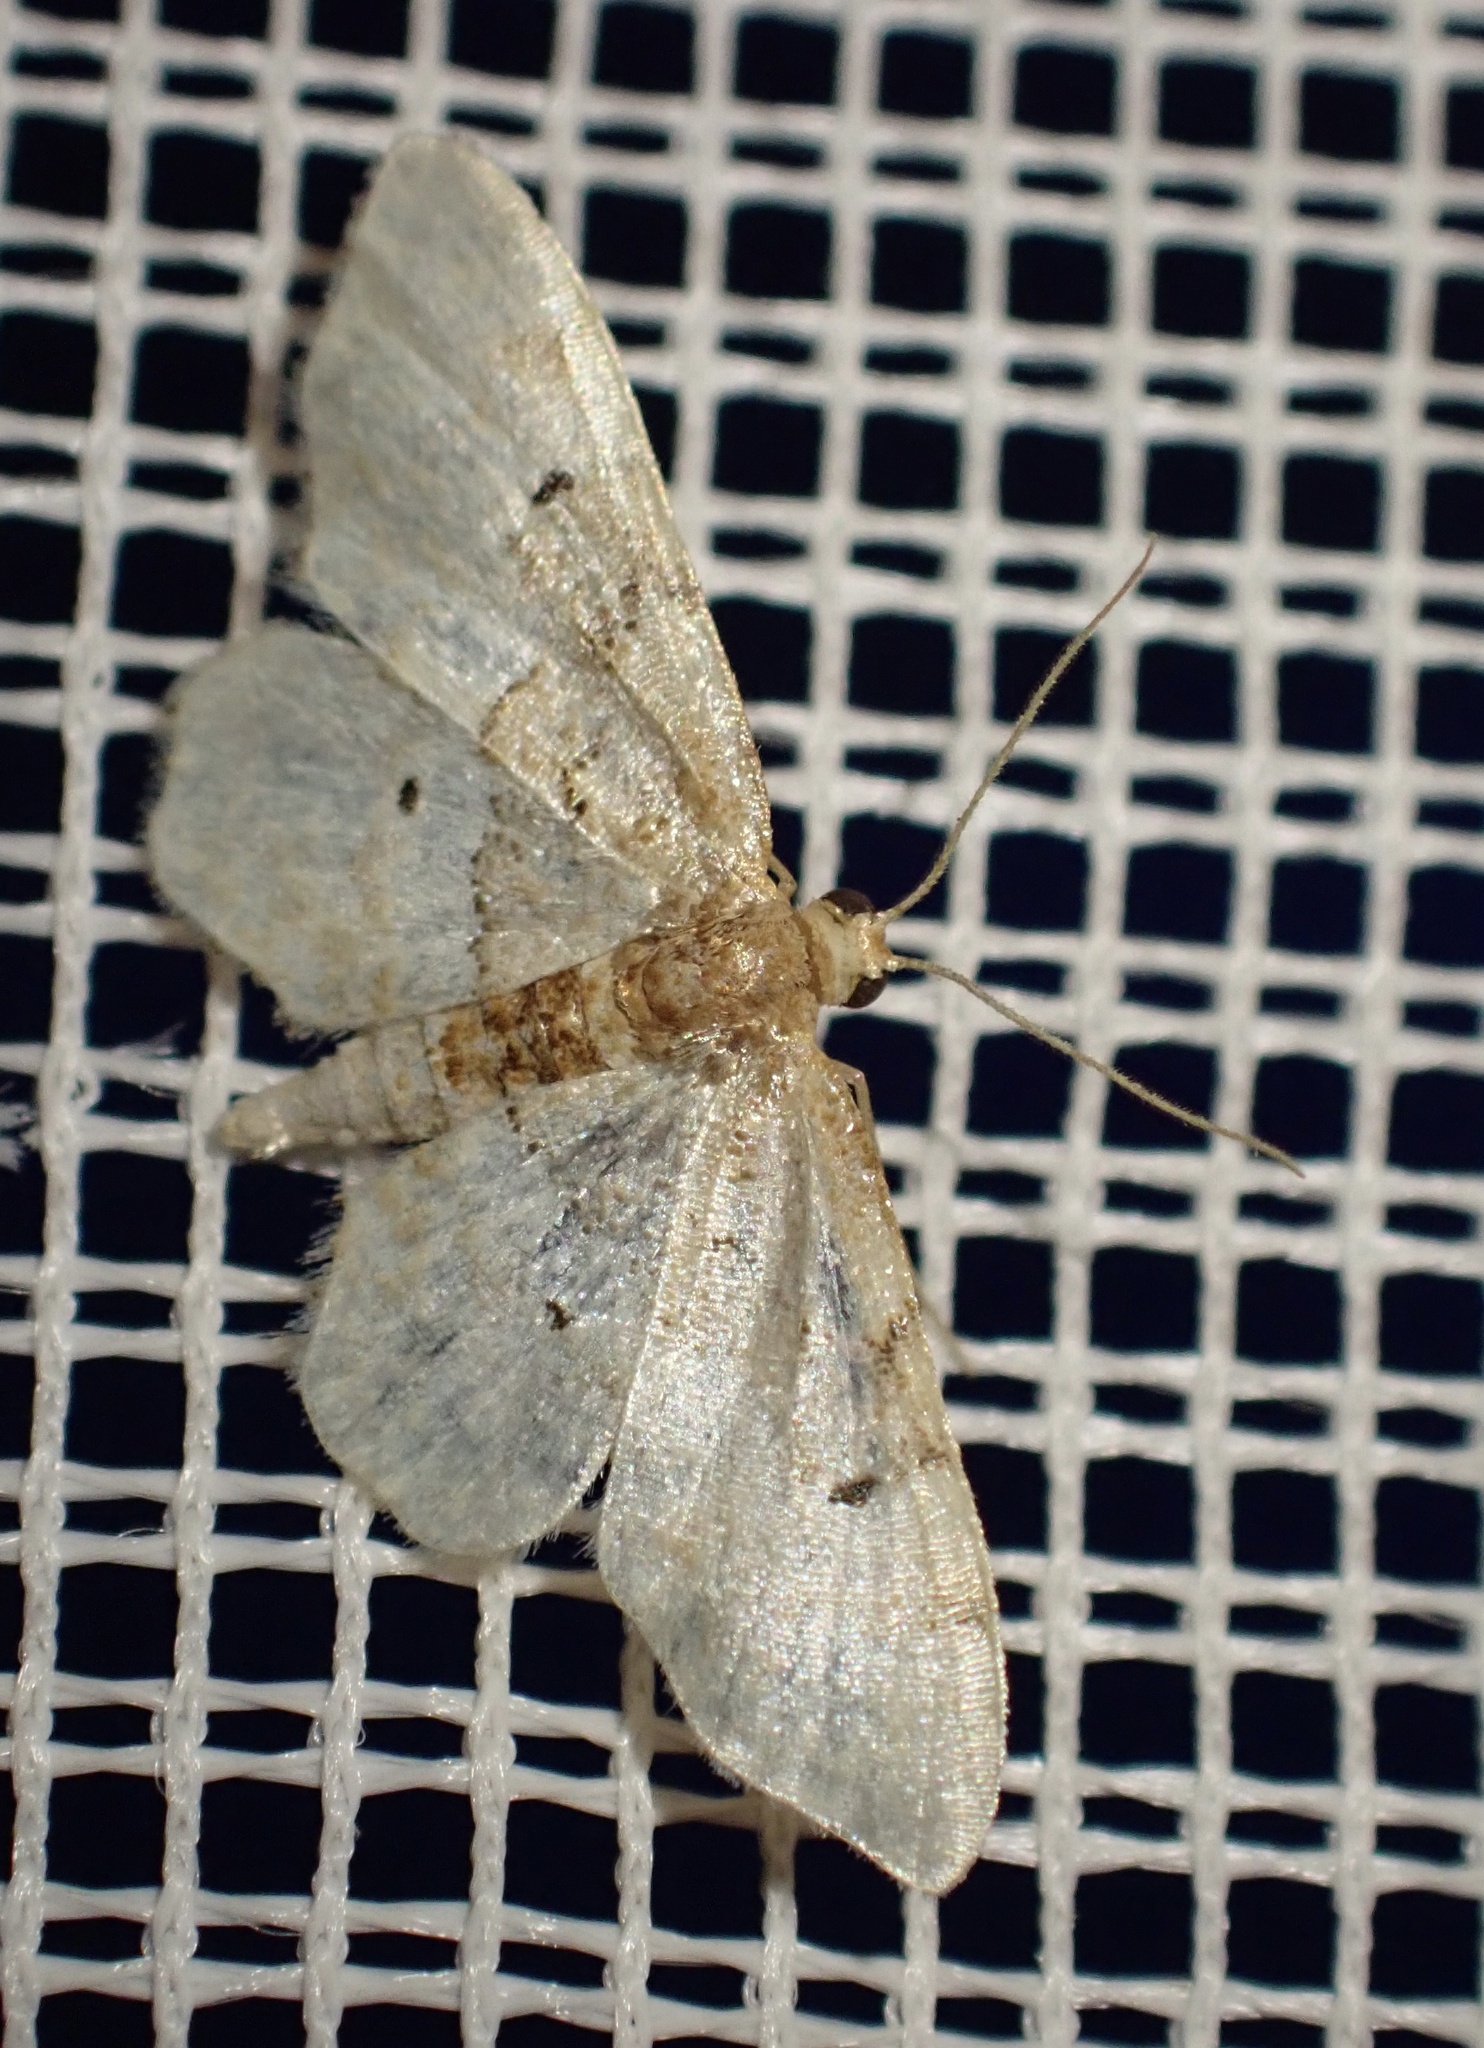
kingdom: Animalia
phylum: Arthropoda
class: Insecta
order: Lepidoptera
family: Geometridae
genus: Idaea
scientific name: Idaea completa
